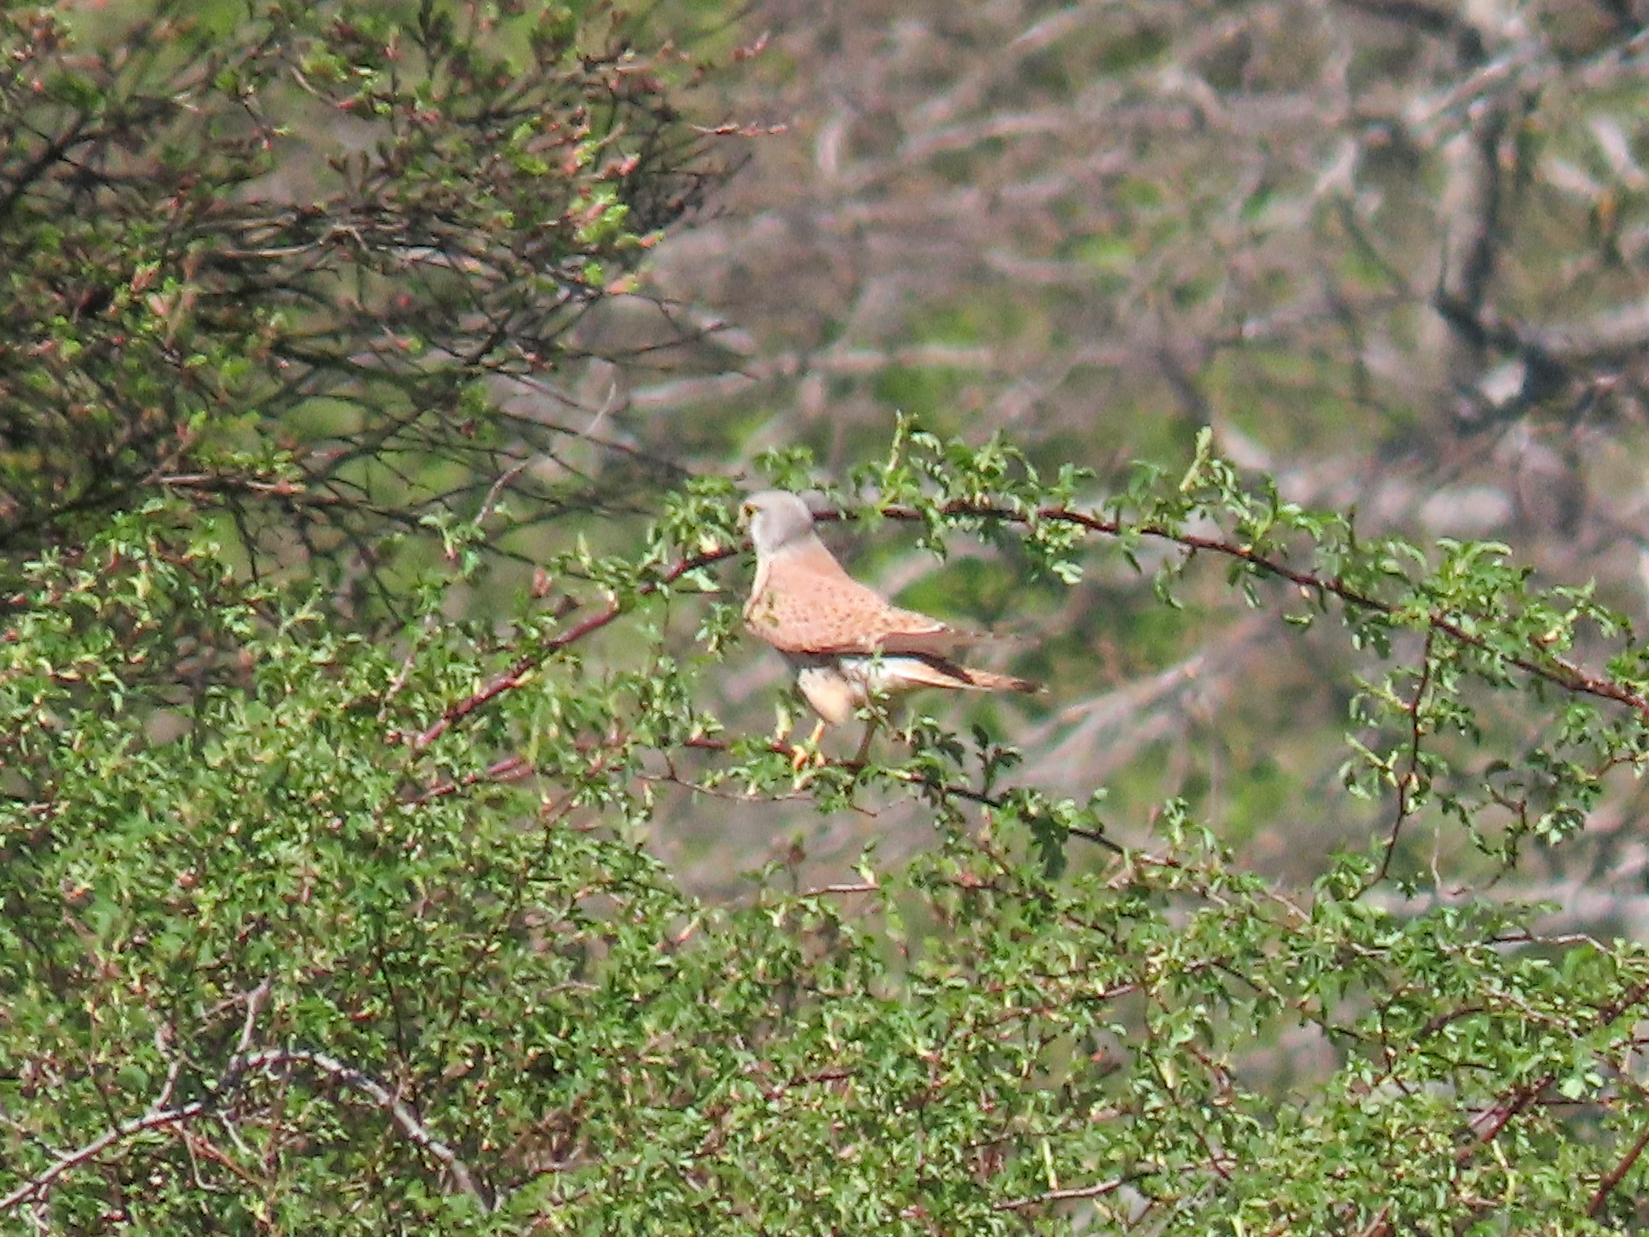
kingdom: Animalia
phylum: Chordata
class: Aves
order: Falconiformes
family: Falconidae
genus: Falco
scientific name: Falco tinnunculus
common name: Common kestrel
